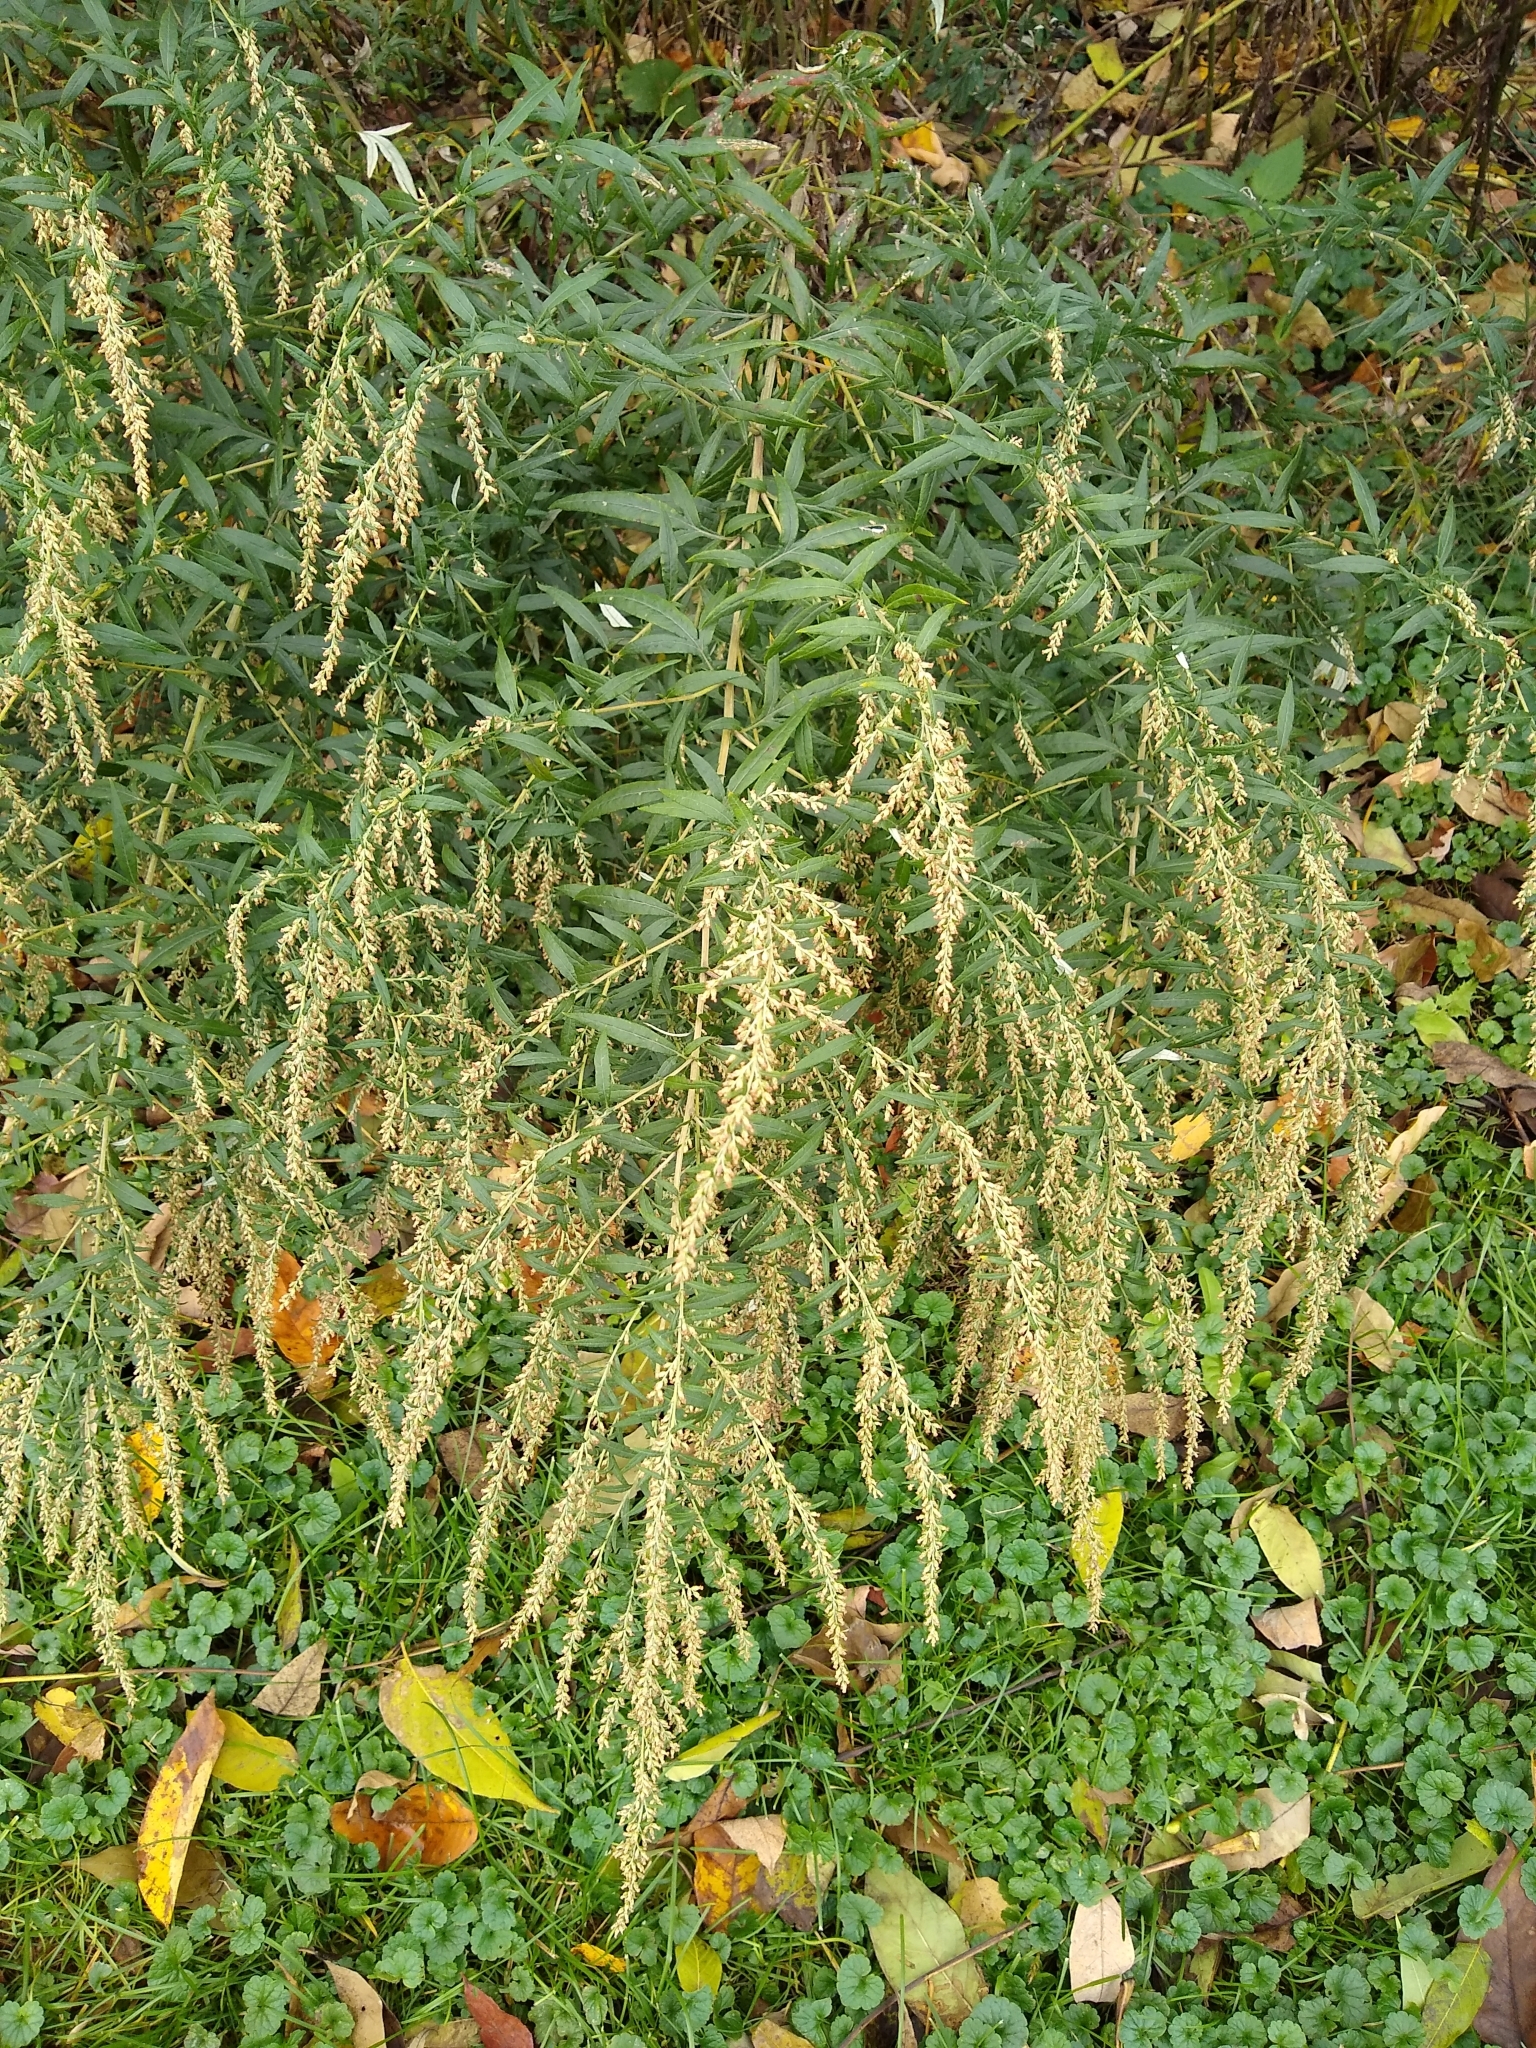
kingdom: Plantae
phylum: Tracheophyta
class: Magnoliopsida
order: Asterales
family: Asteraceae
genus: Artemisia
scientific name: Artemisia vulgaris
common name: Mugwort
